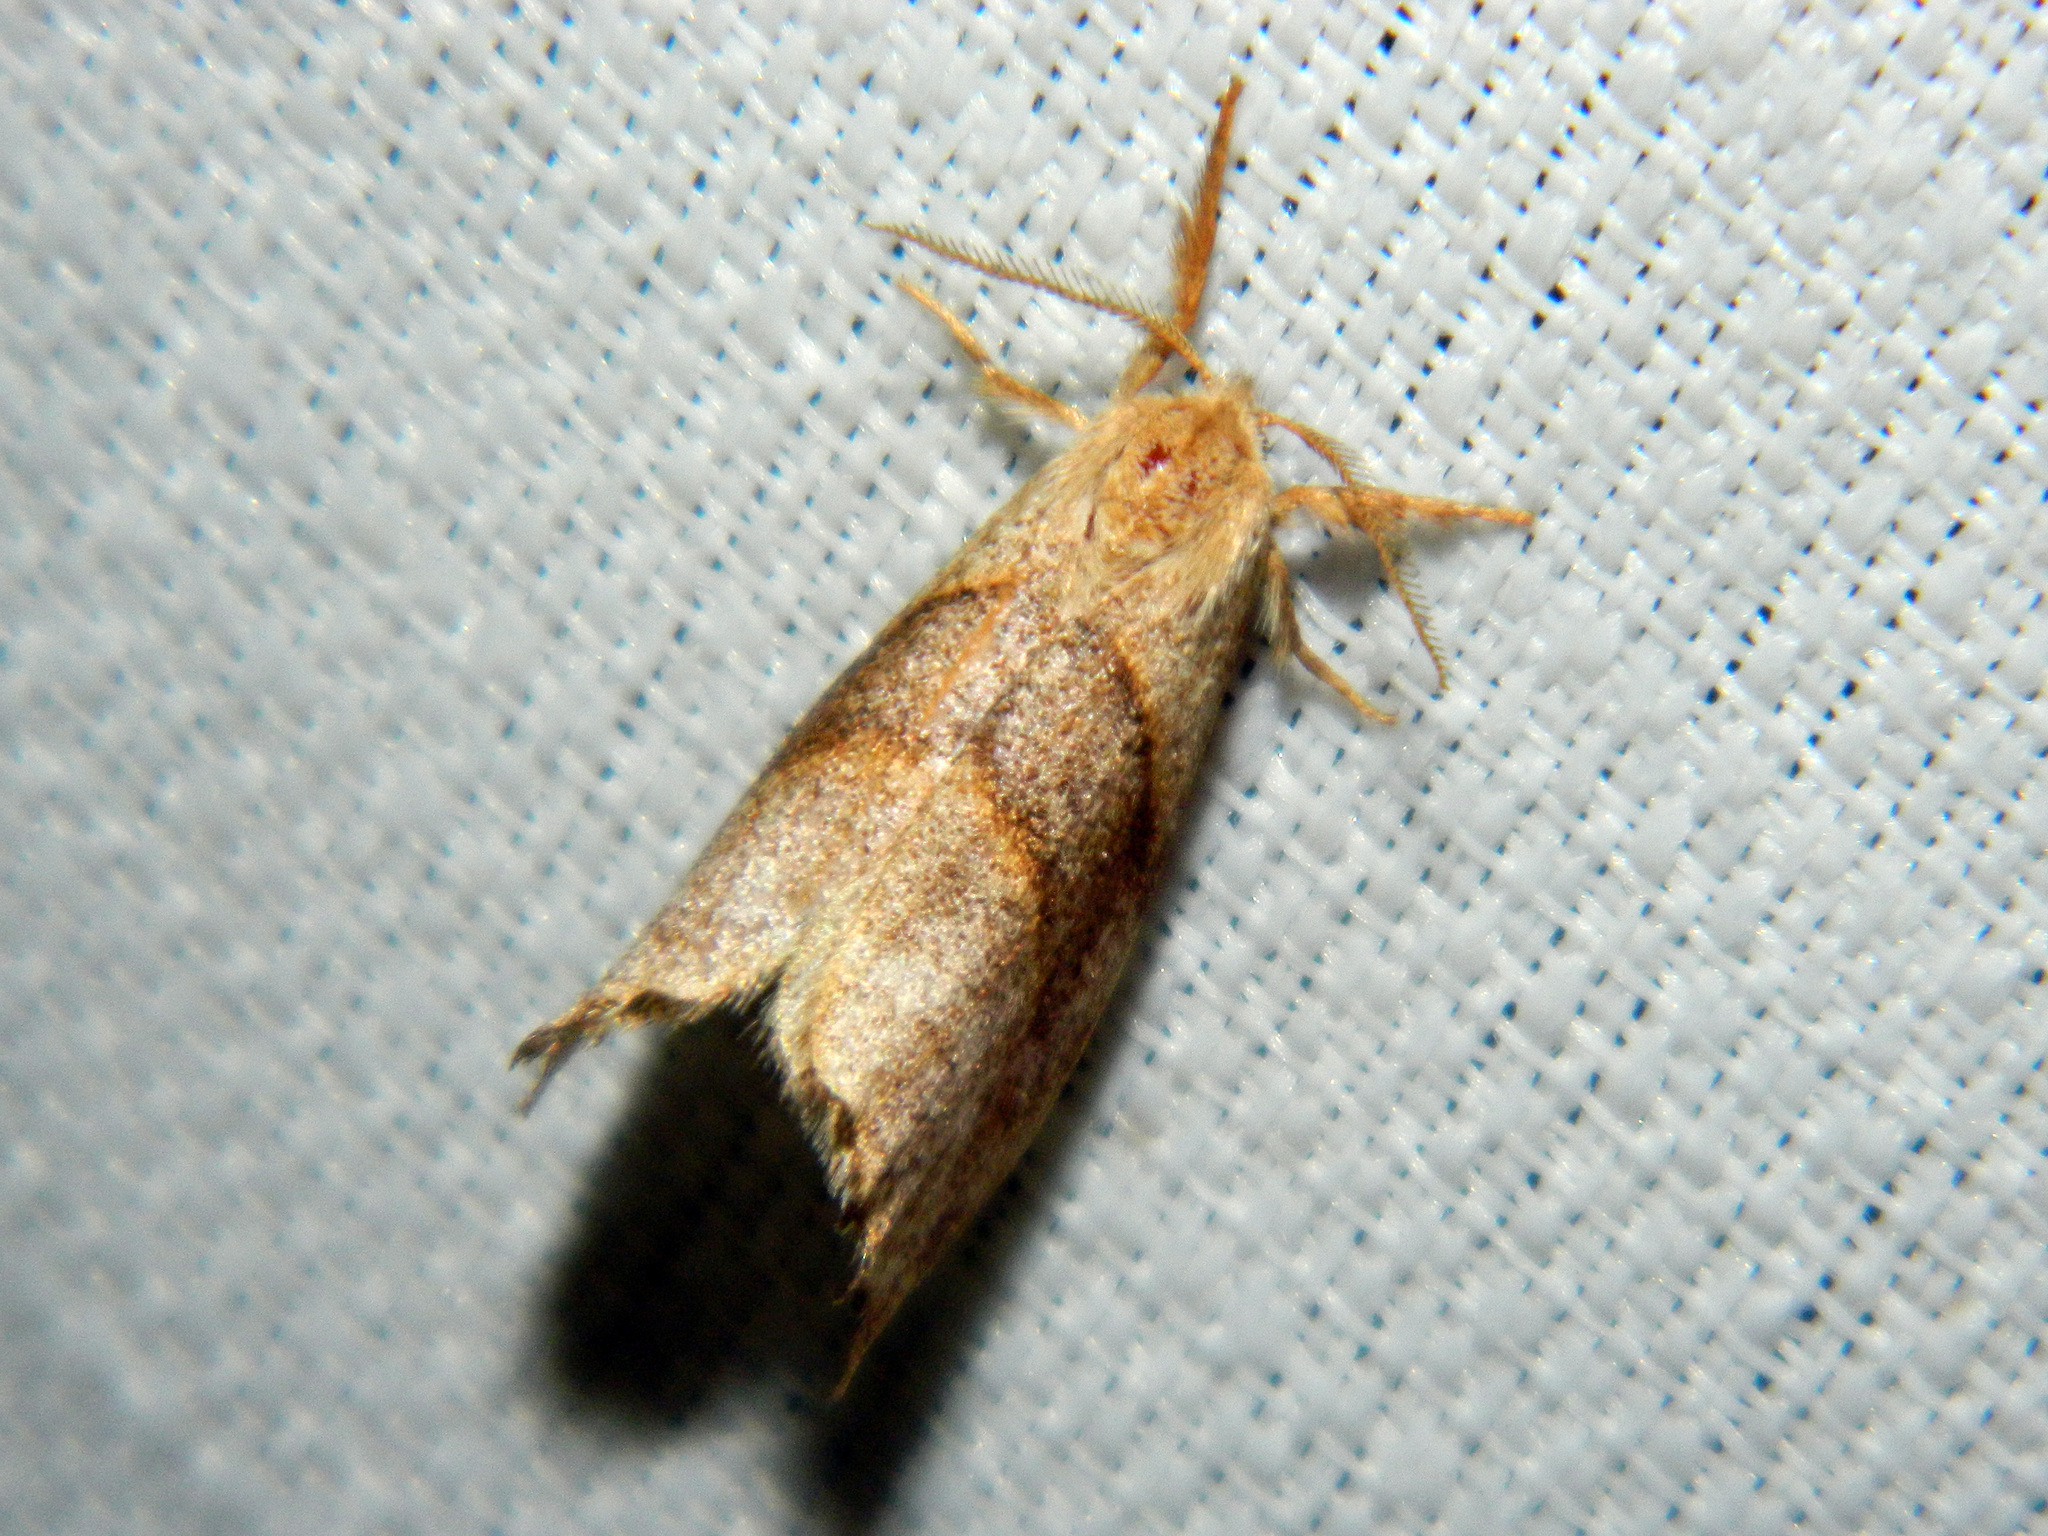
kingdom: Animalia
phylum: Arthropoda
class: Insecta
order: Lepidoptera
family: Drepanidae
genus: Falcaria
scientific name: Falcaria bilineata
